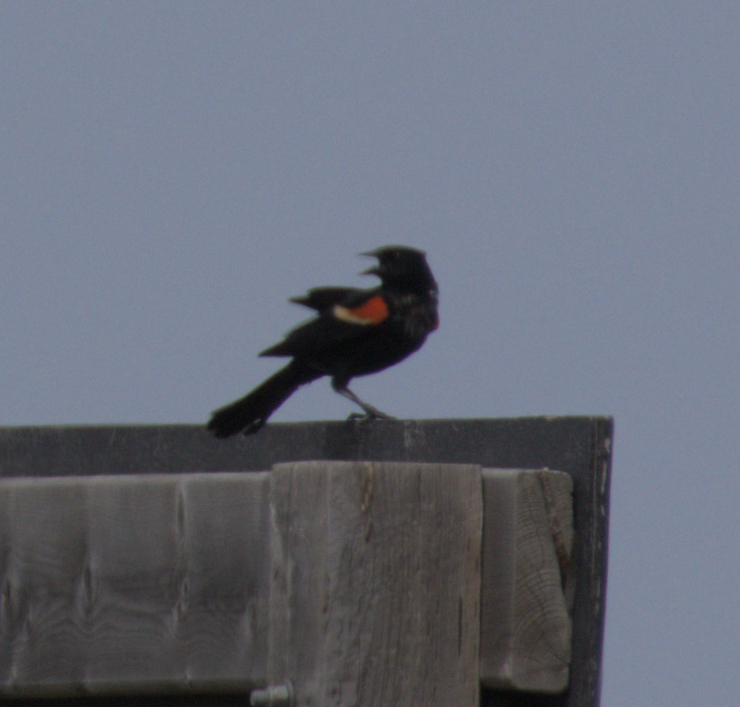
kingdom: Animalia
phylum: Chordata
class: Aves
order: Passeriformes
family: Icteridae
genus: Agelaius
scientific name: Agelaius phoeniceus
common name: Red-winged blackbird
